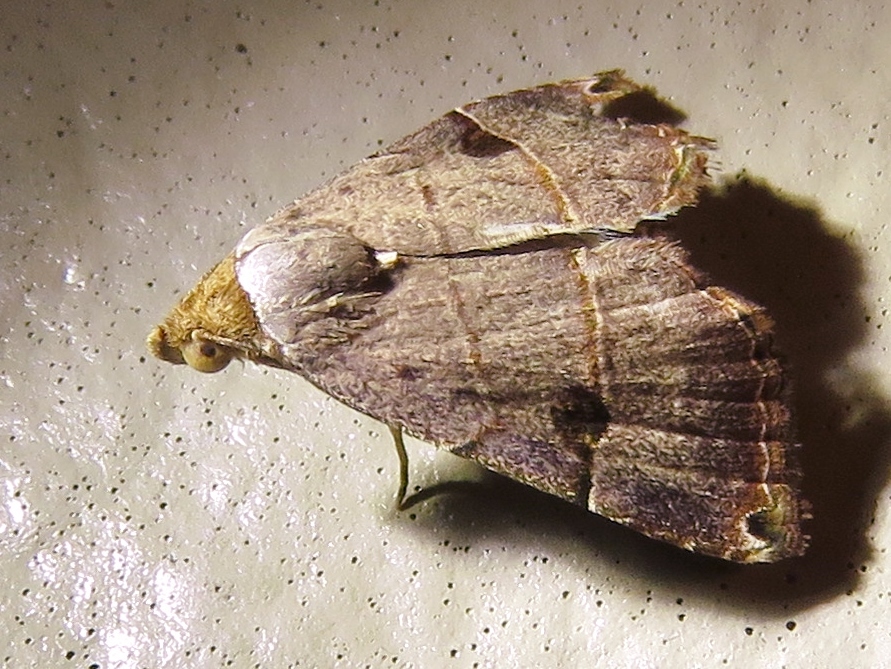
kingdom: Animalia
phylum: Arthropoda
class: Insecta
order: Lepidoptera
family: Noctuidae
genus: Abacena
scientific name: Abacena mundula
